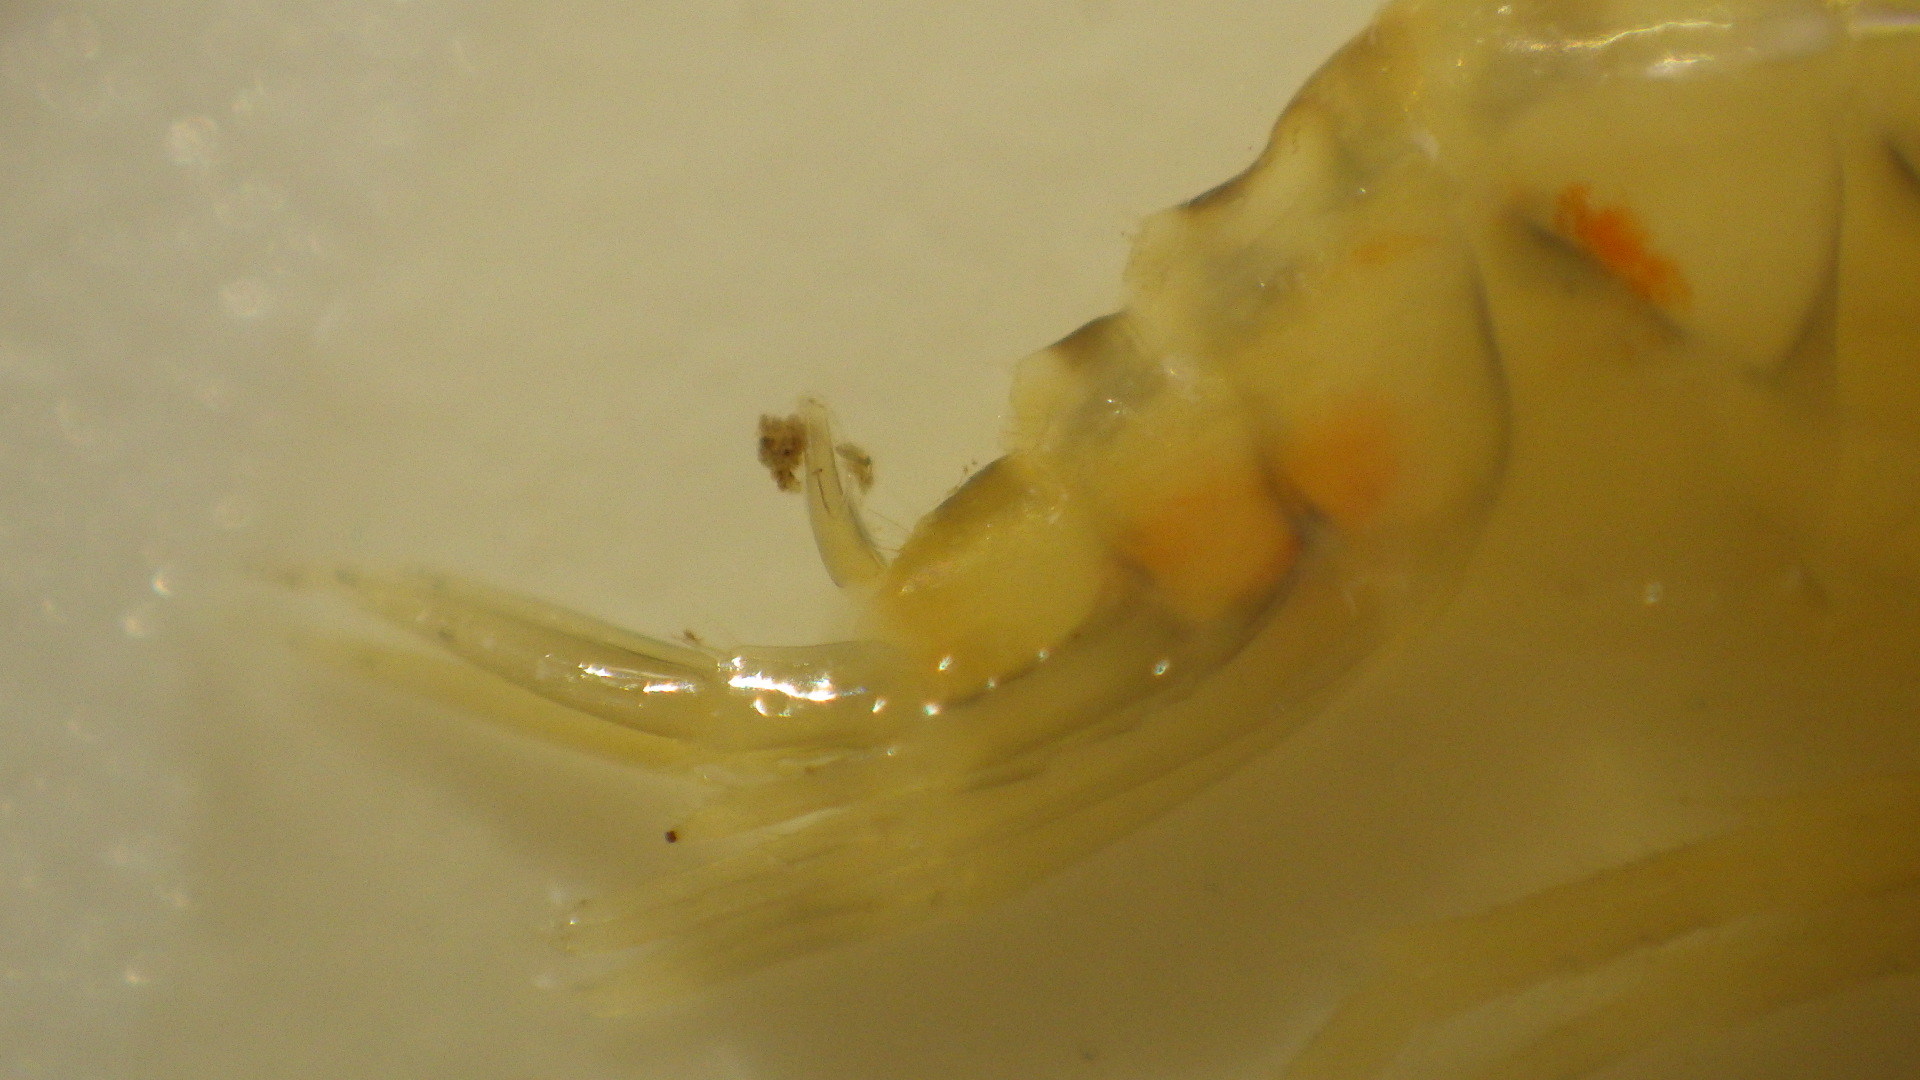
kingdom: Animalia
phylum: Arthropoda
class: Malacostraca
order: Amphipoda
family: Gammaridae
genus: Gammarus
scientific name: Gammarus fasciatus
